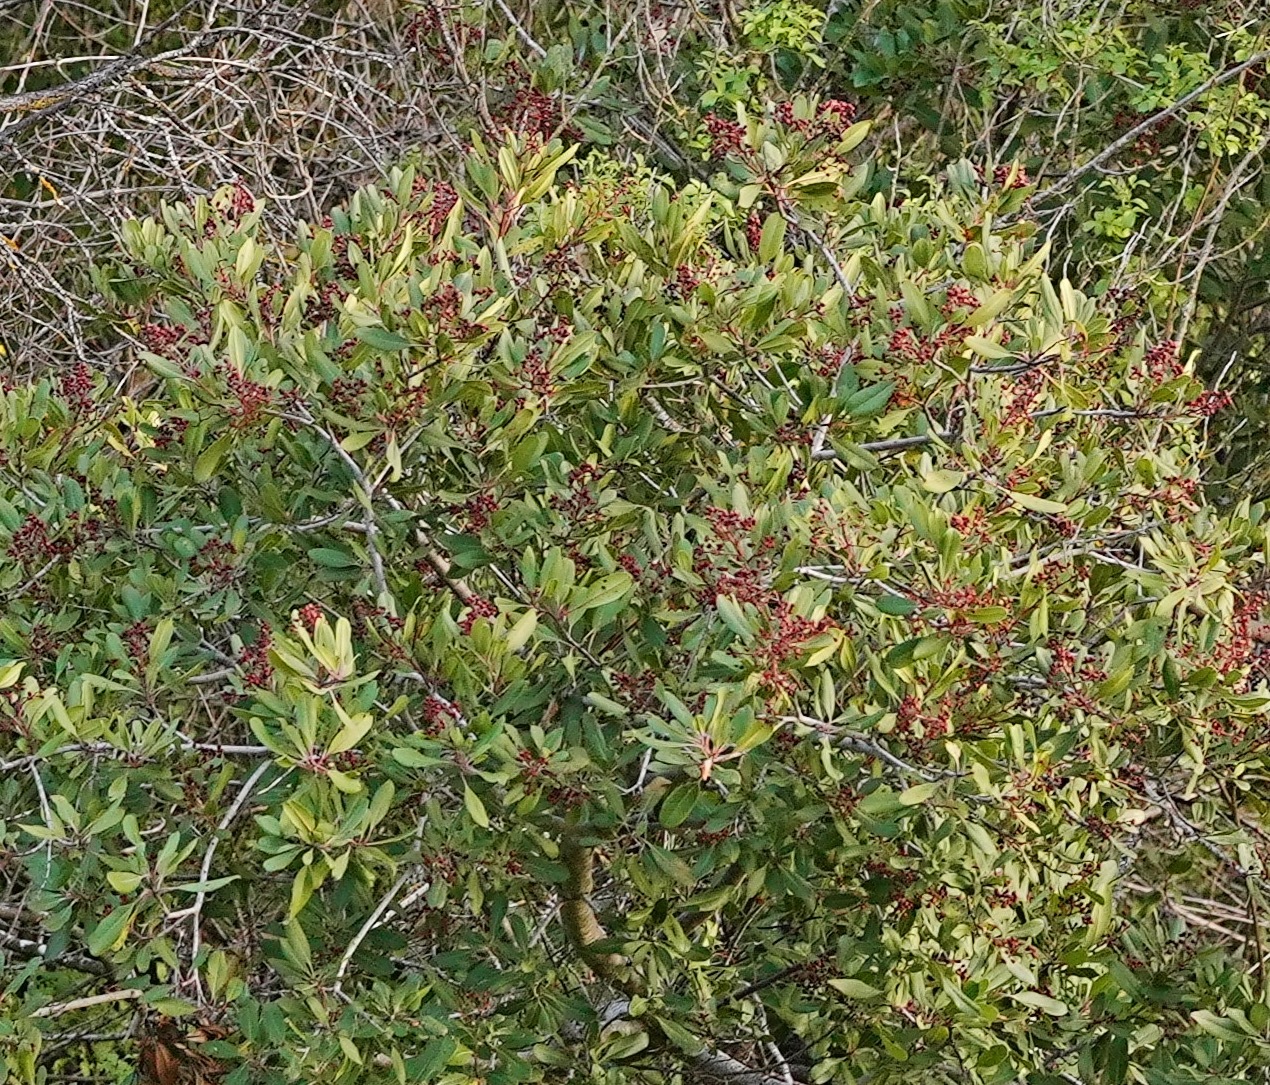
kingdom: Plantae
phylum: Tracheophyta
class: Magnoliopsida
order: Rosales
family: Rosaceae
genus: Heteromeles
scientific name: Heteromeles arbutifolia
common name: California-holly
